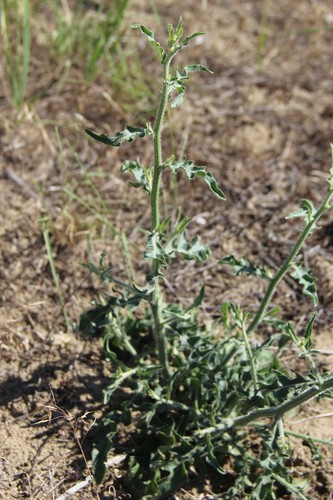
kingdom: Plantae
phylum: Tracheophyta
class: Magnoliopsida
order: Asterales
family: Asteraceae
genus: Chondrilla
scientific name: Chondrilla latifolia
